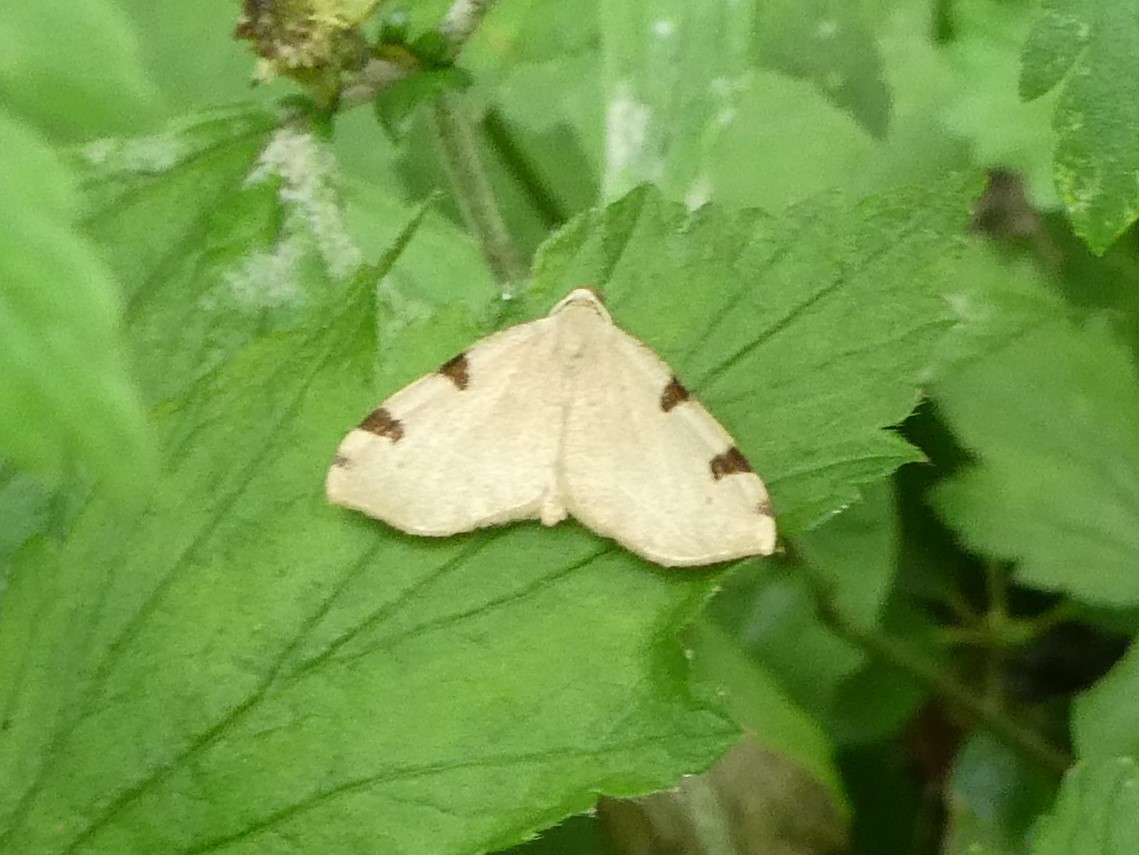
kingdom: Animalia
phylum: Arthropoda
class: Insecta
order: Lepidoptera
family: Geometridae
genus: Heterophleps
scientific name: Heterophleps triguttaria
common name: Three-spotted fillip
